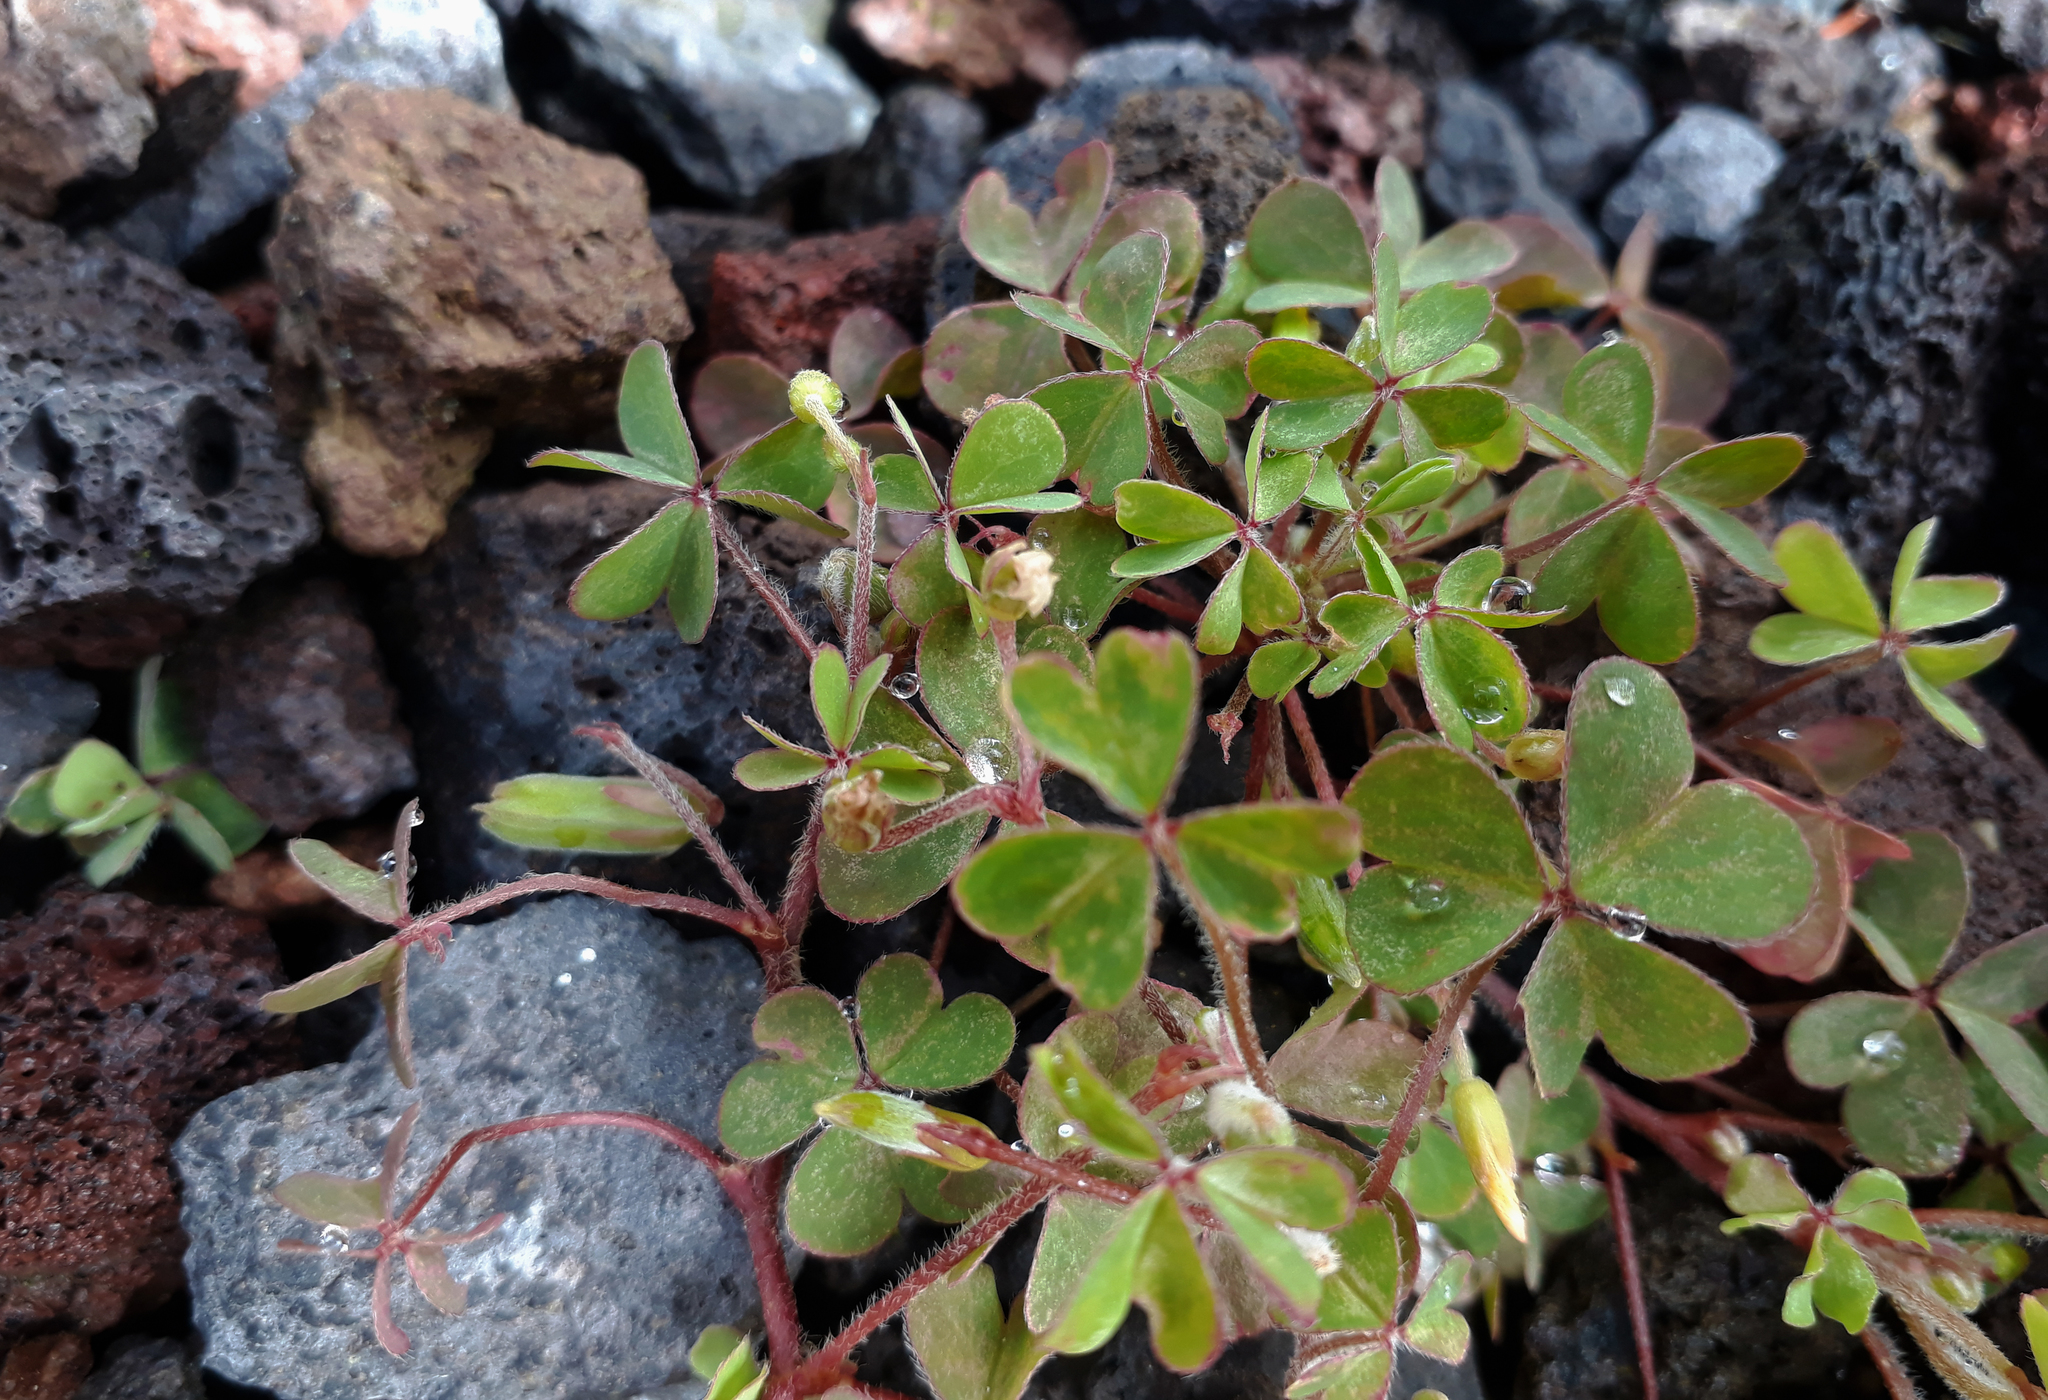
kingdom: Plantae
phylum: Tracheophyta
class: Magnoliopsida
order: Oxalidales
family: Oxalidaceae
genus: Oxalis
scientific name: Oxalis chnoodes
